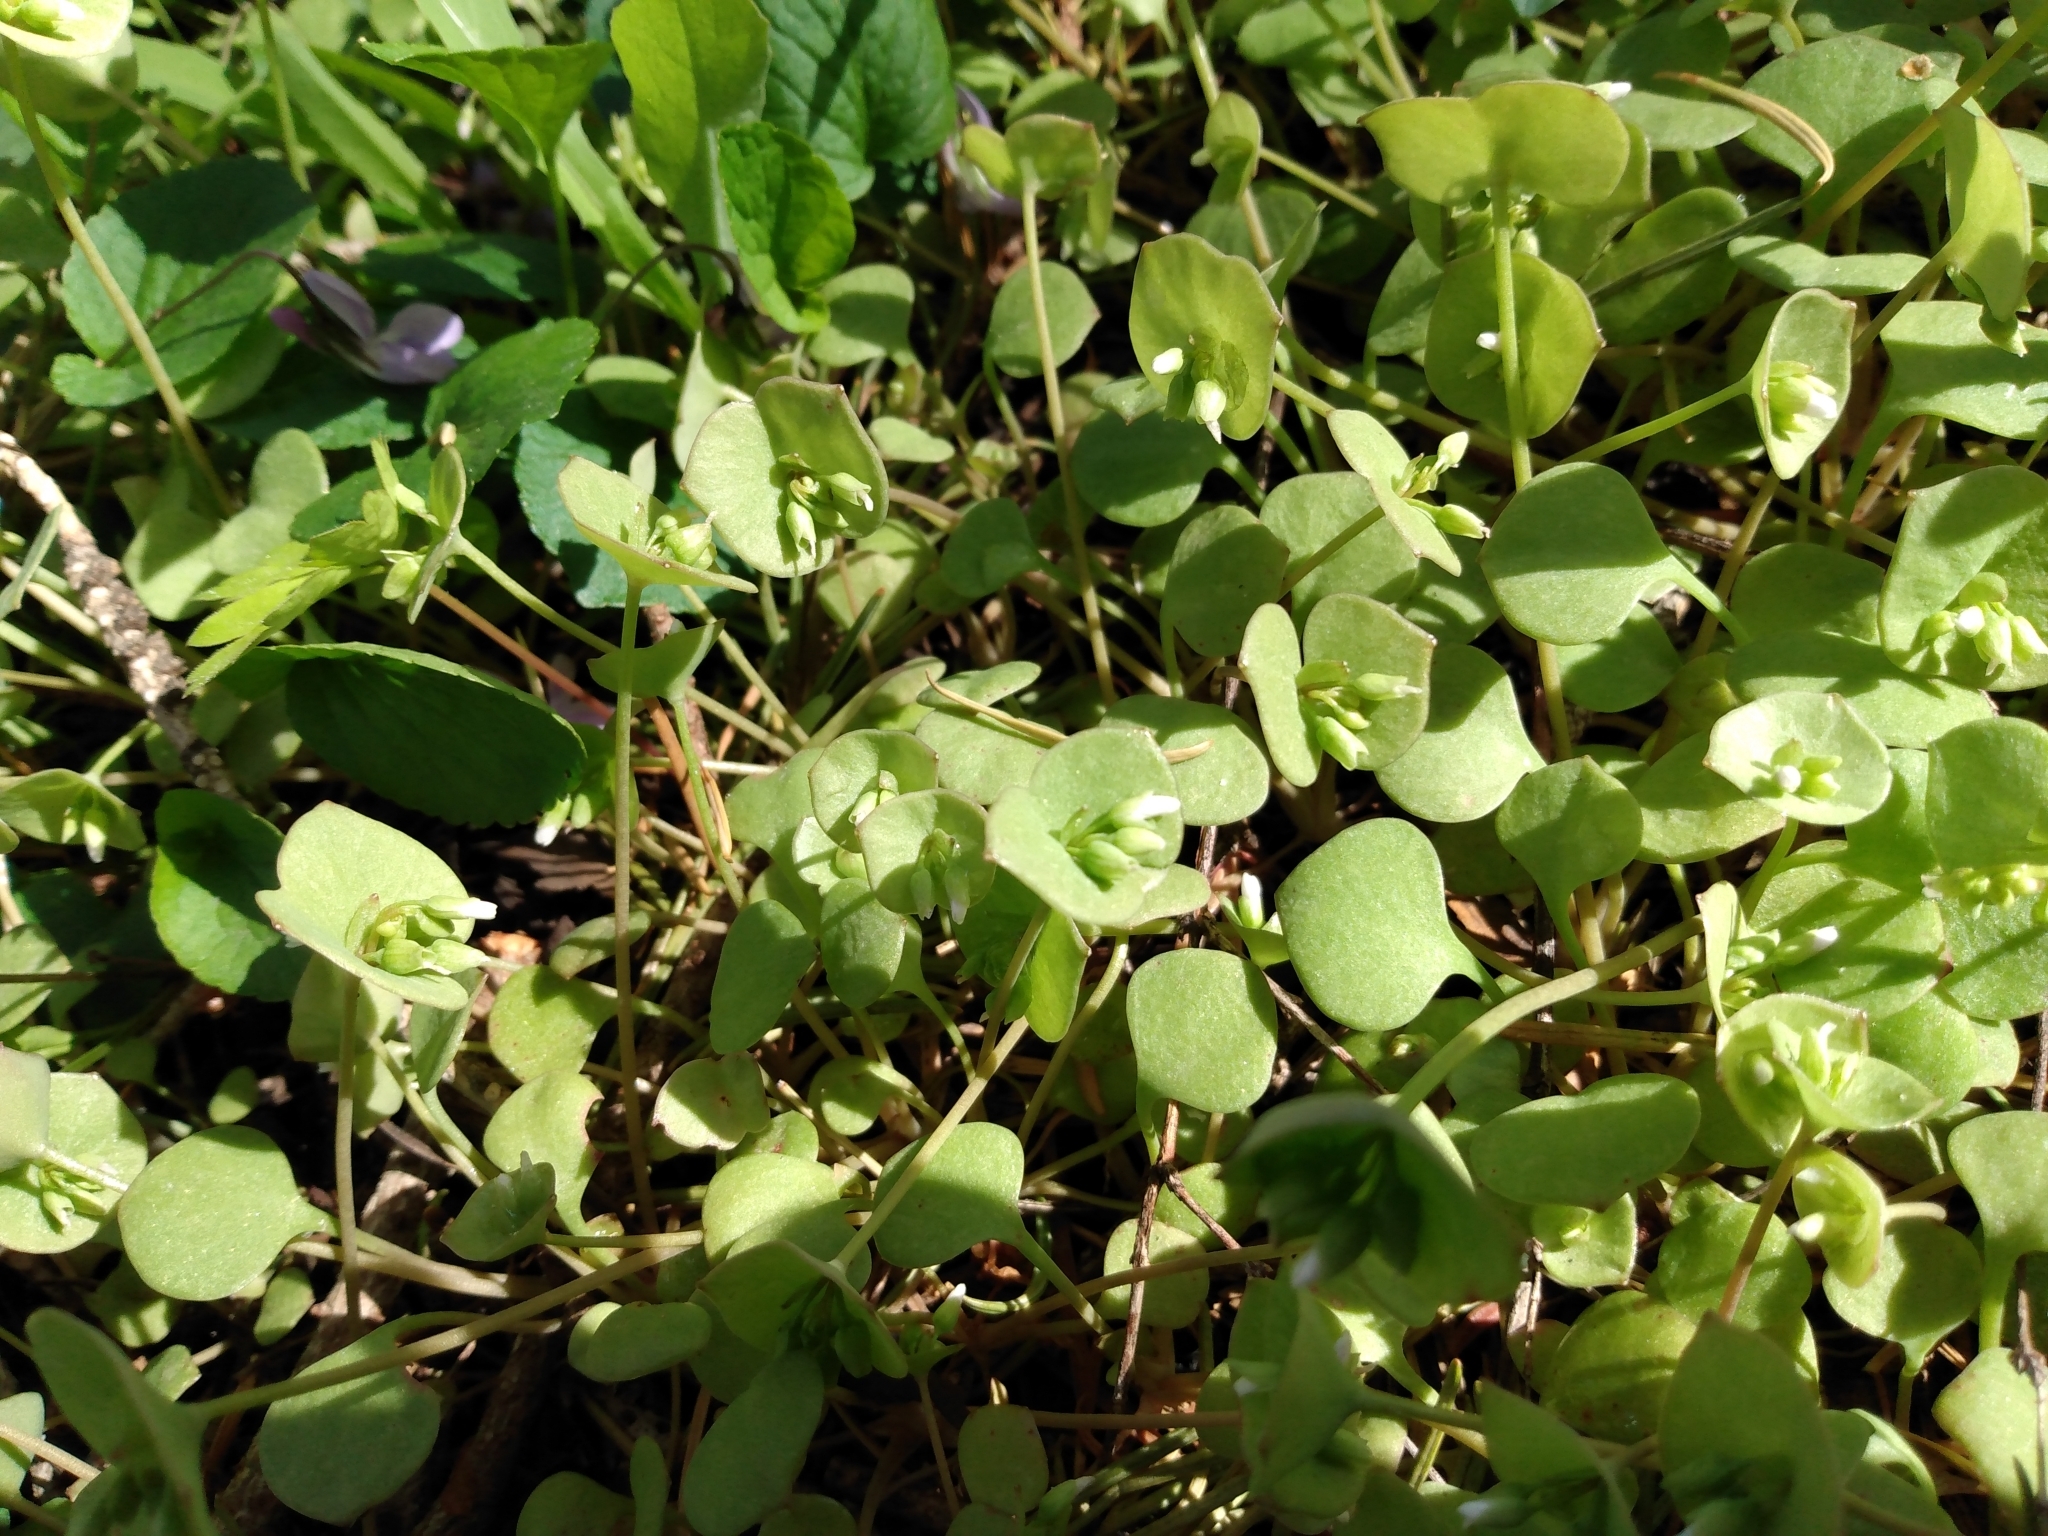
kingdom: Plantae
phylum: Tracheophyta
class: Magnoliopsida
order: Caryophyllales
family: Montiaceae
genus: Claytonia
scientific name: Claytonia perfoliata
